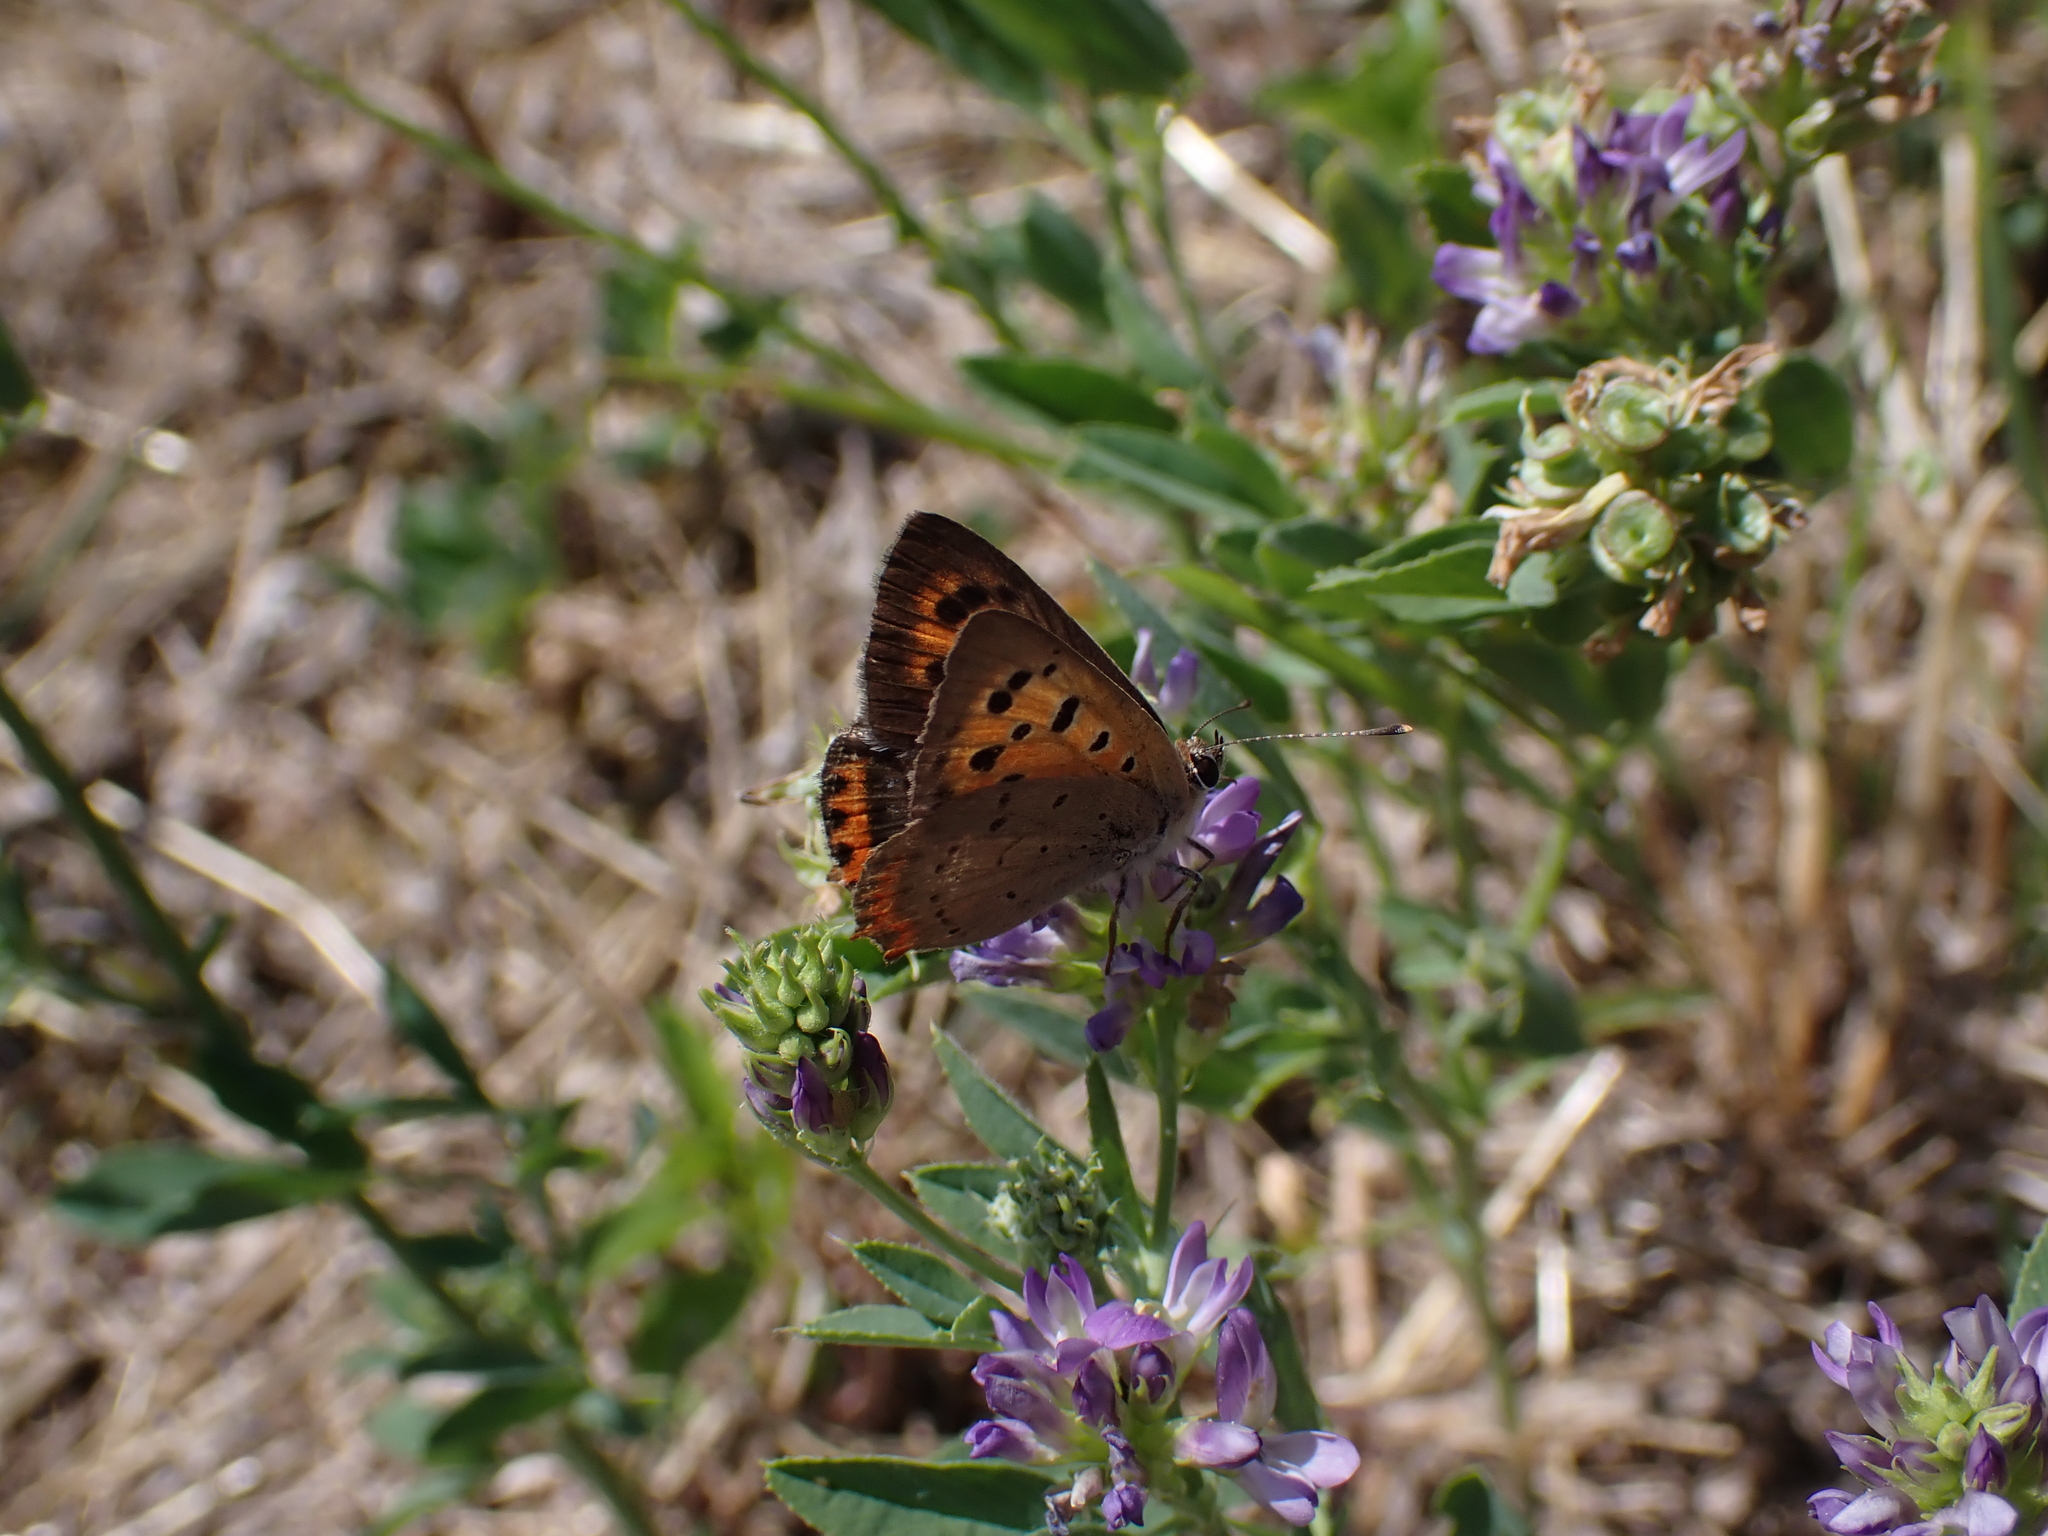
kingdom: Animalia
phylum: Arthropoda
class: Insecta
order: Lepidoptera
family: Lycaenidae
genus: Lycaena
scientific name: Lycaena phlaeas
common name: Small copper
